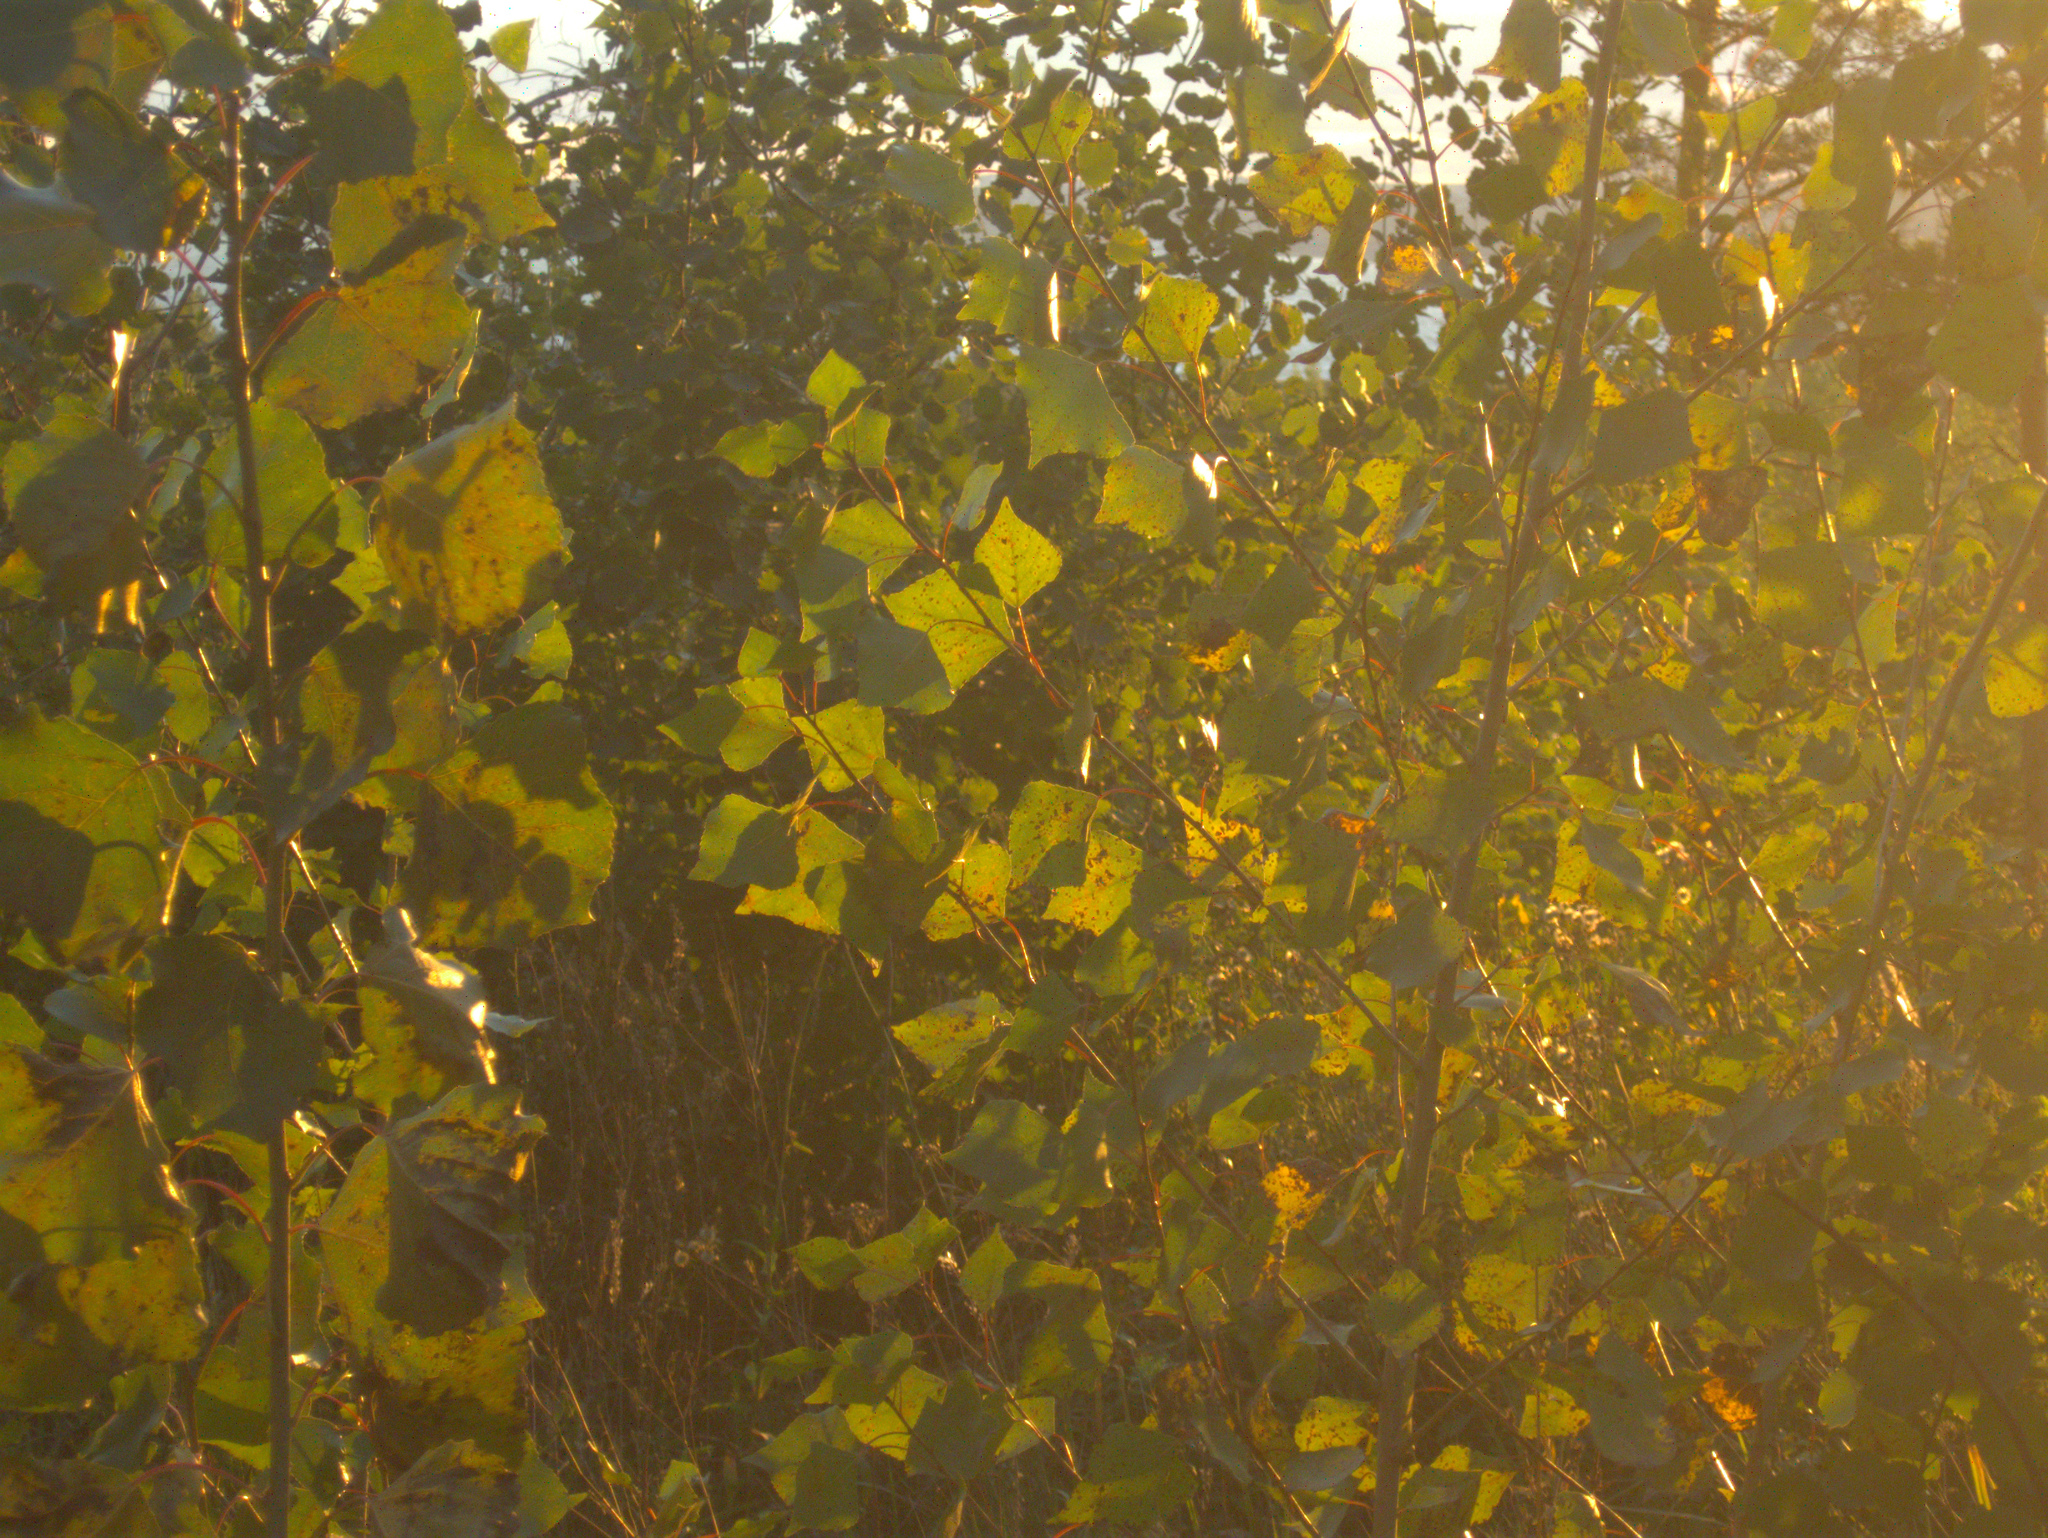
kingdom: Plantae
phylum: Tracheophyta
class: Magnoliopsida
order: Malpighiales
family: Salicaceae
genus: Populus
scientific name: Populus tremula
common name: European aspen
